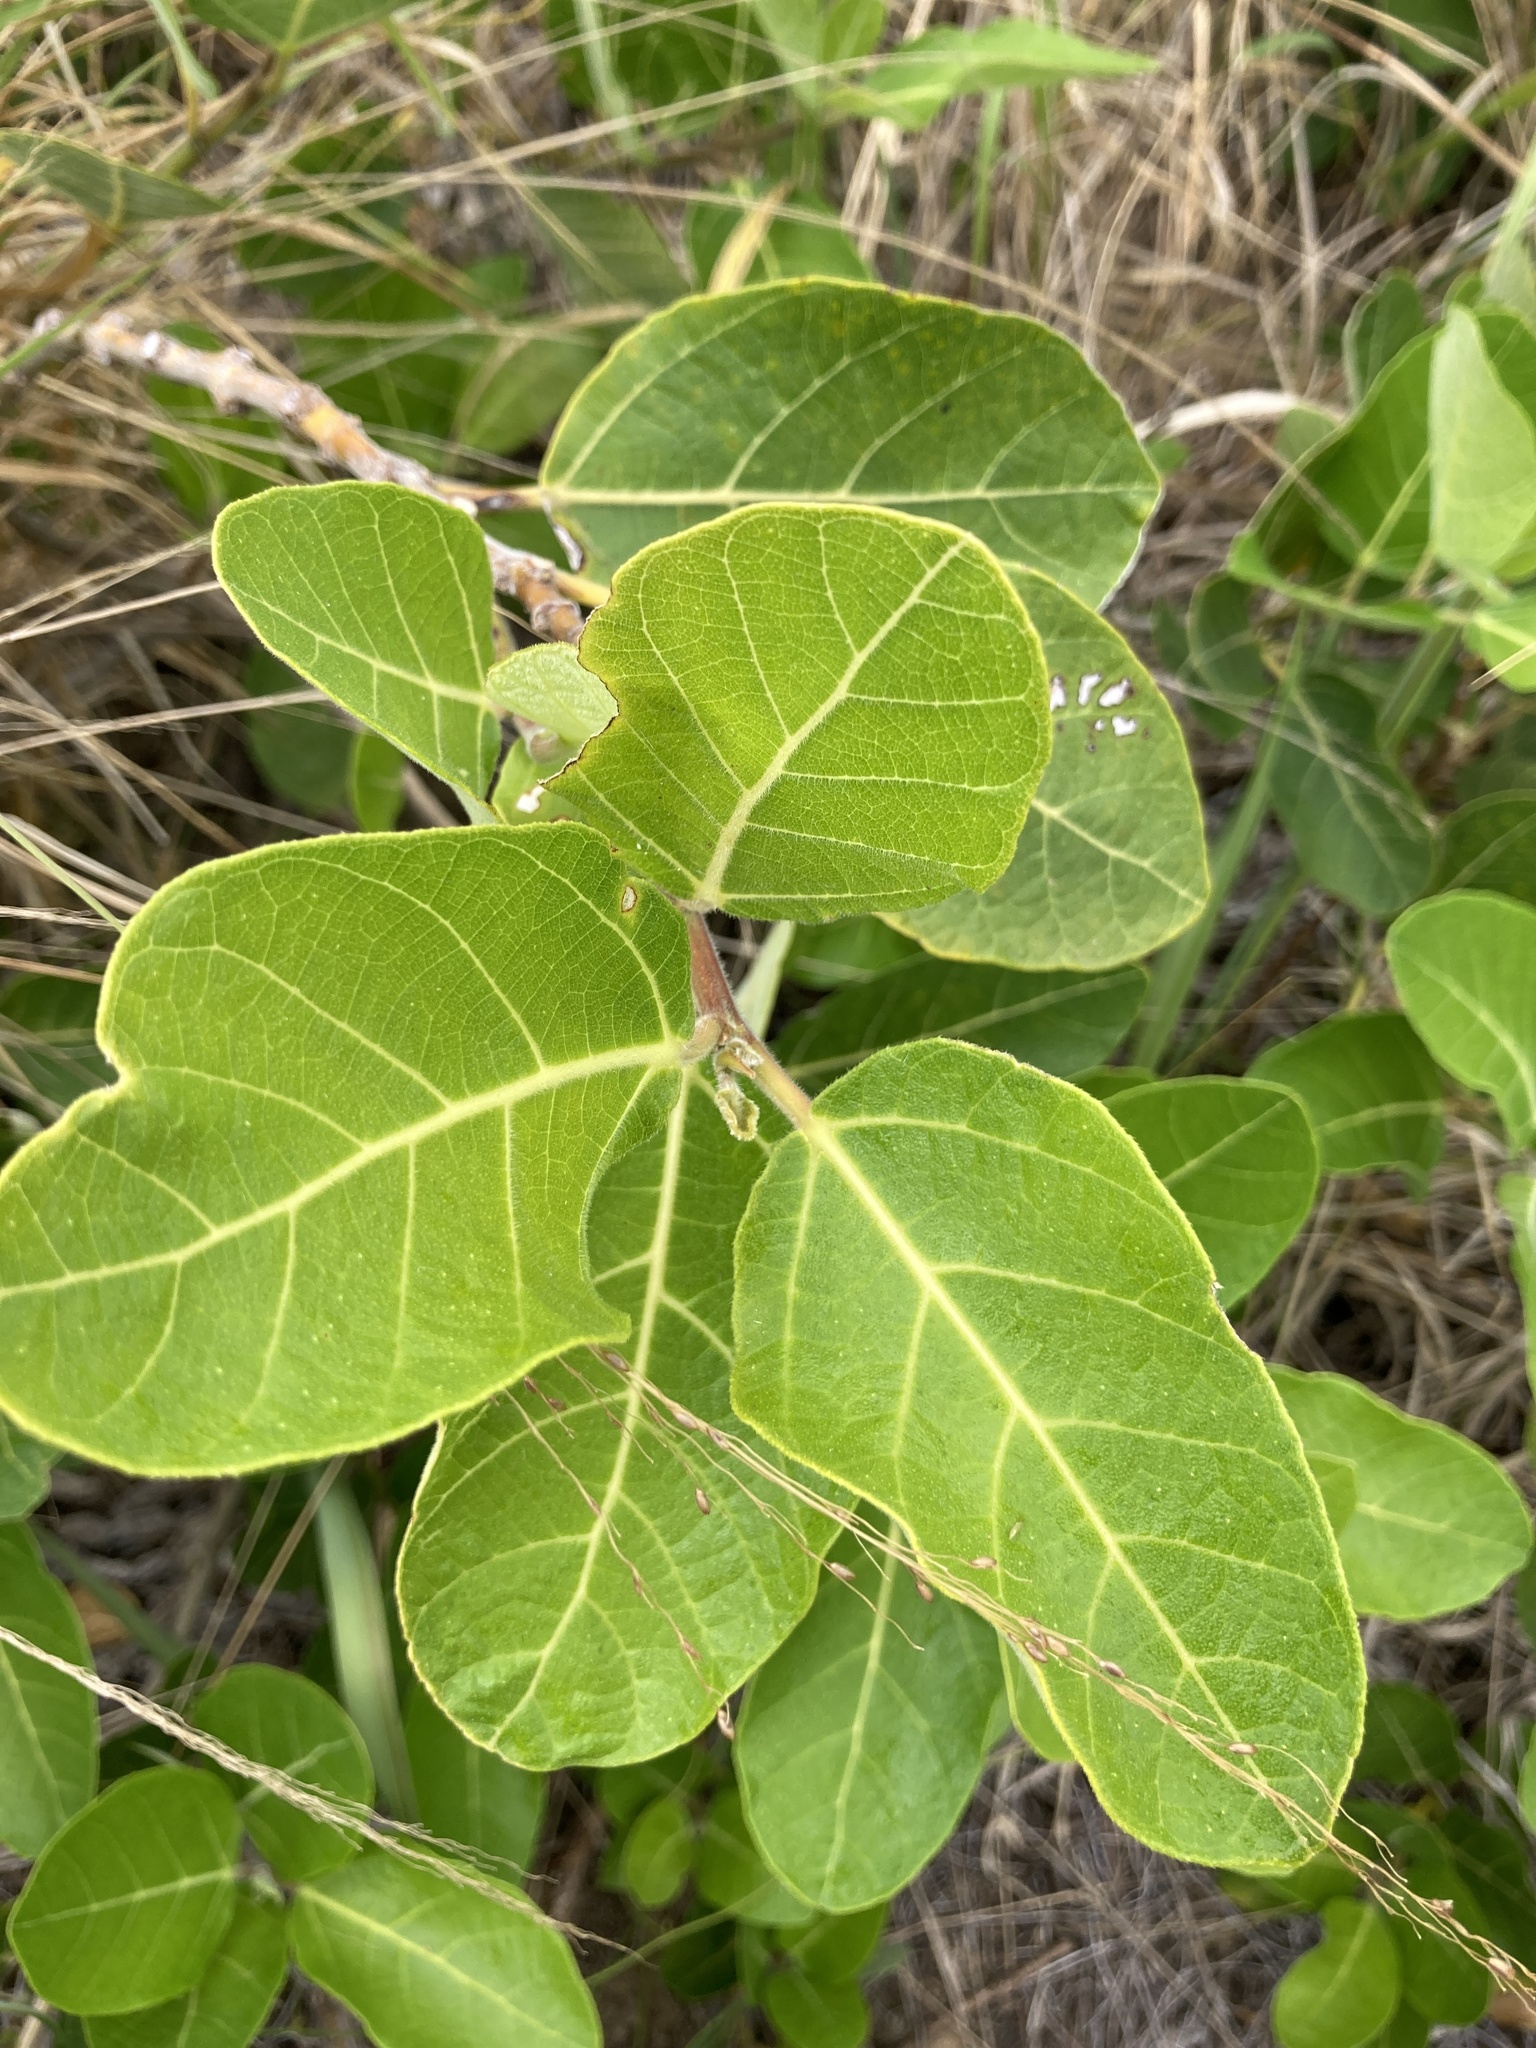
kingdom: Plantae
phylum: Tracheophyta
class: Magnoliopsida
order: Rosales
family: Moraceae
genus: Ficus
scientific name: Ficus opposita
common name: Figwood
